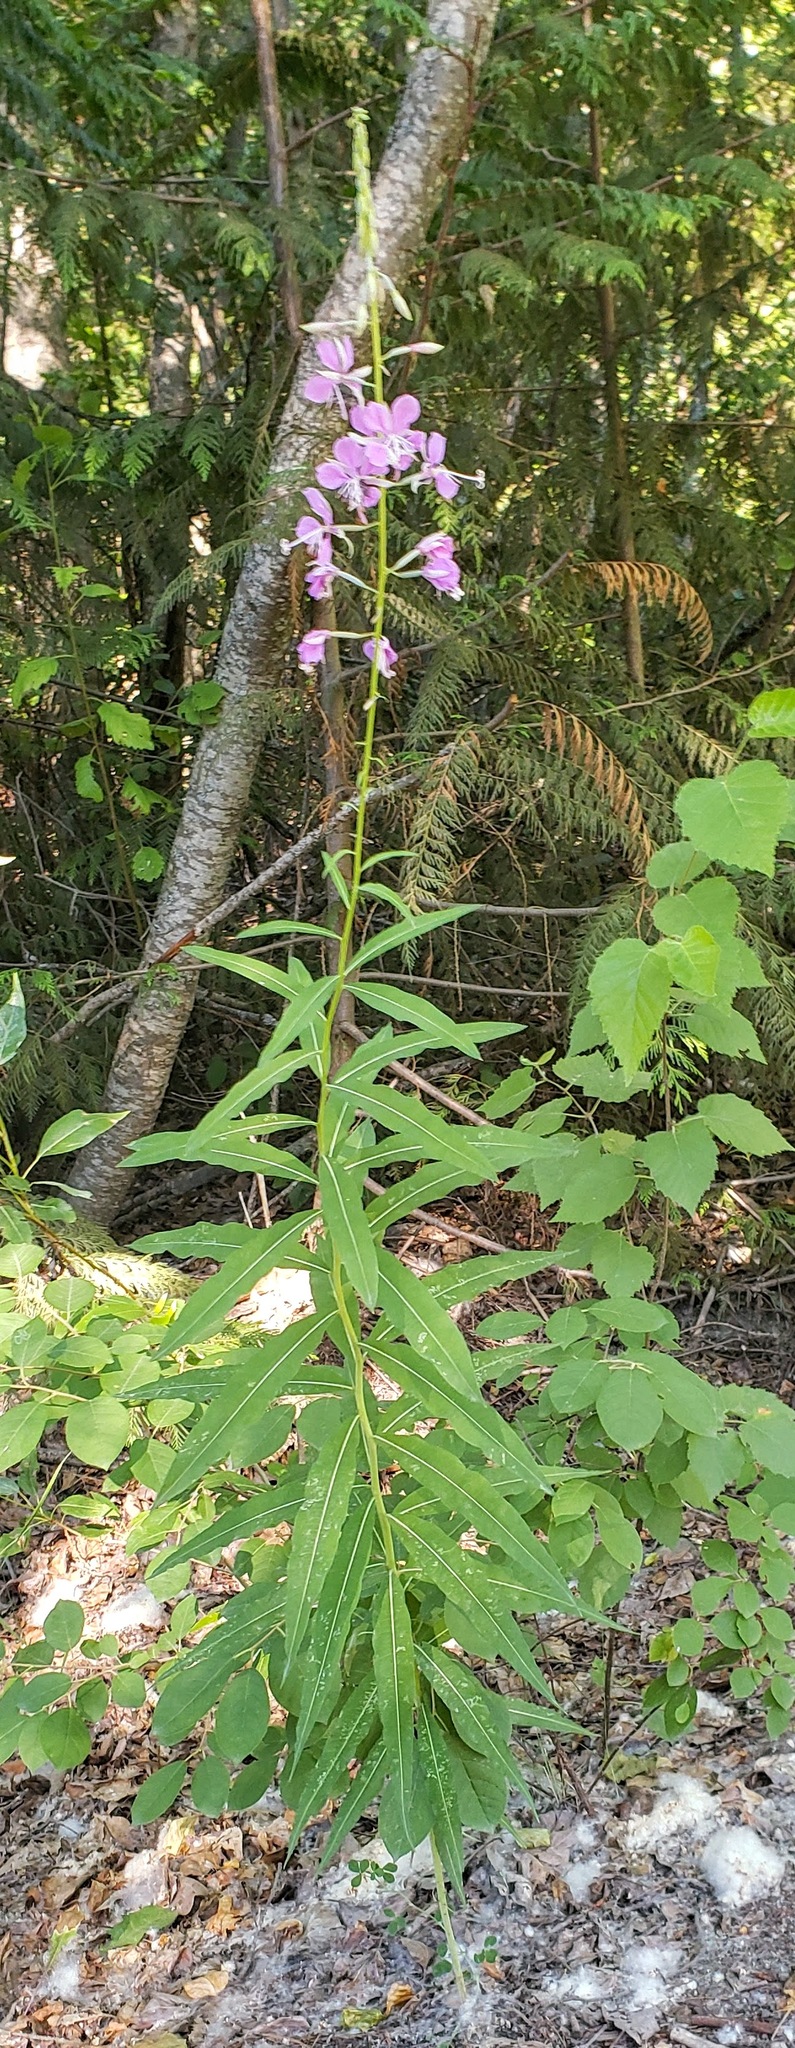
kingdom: Plantae
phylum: Tracheophyta
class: Magnoliopsida
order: Myrtales
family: Onagraceae
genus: Chamaenerion
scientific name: Chamaenerion angustifolium
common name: Fireweed
